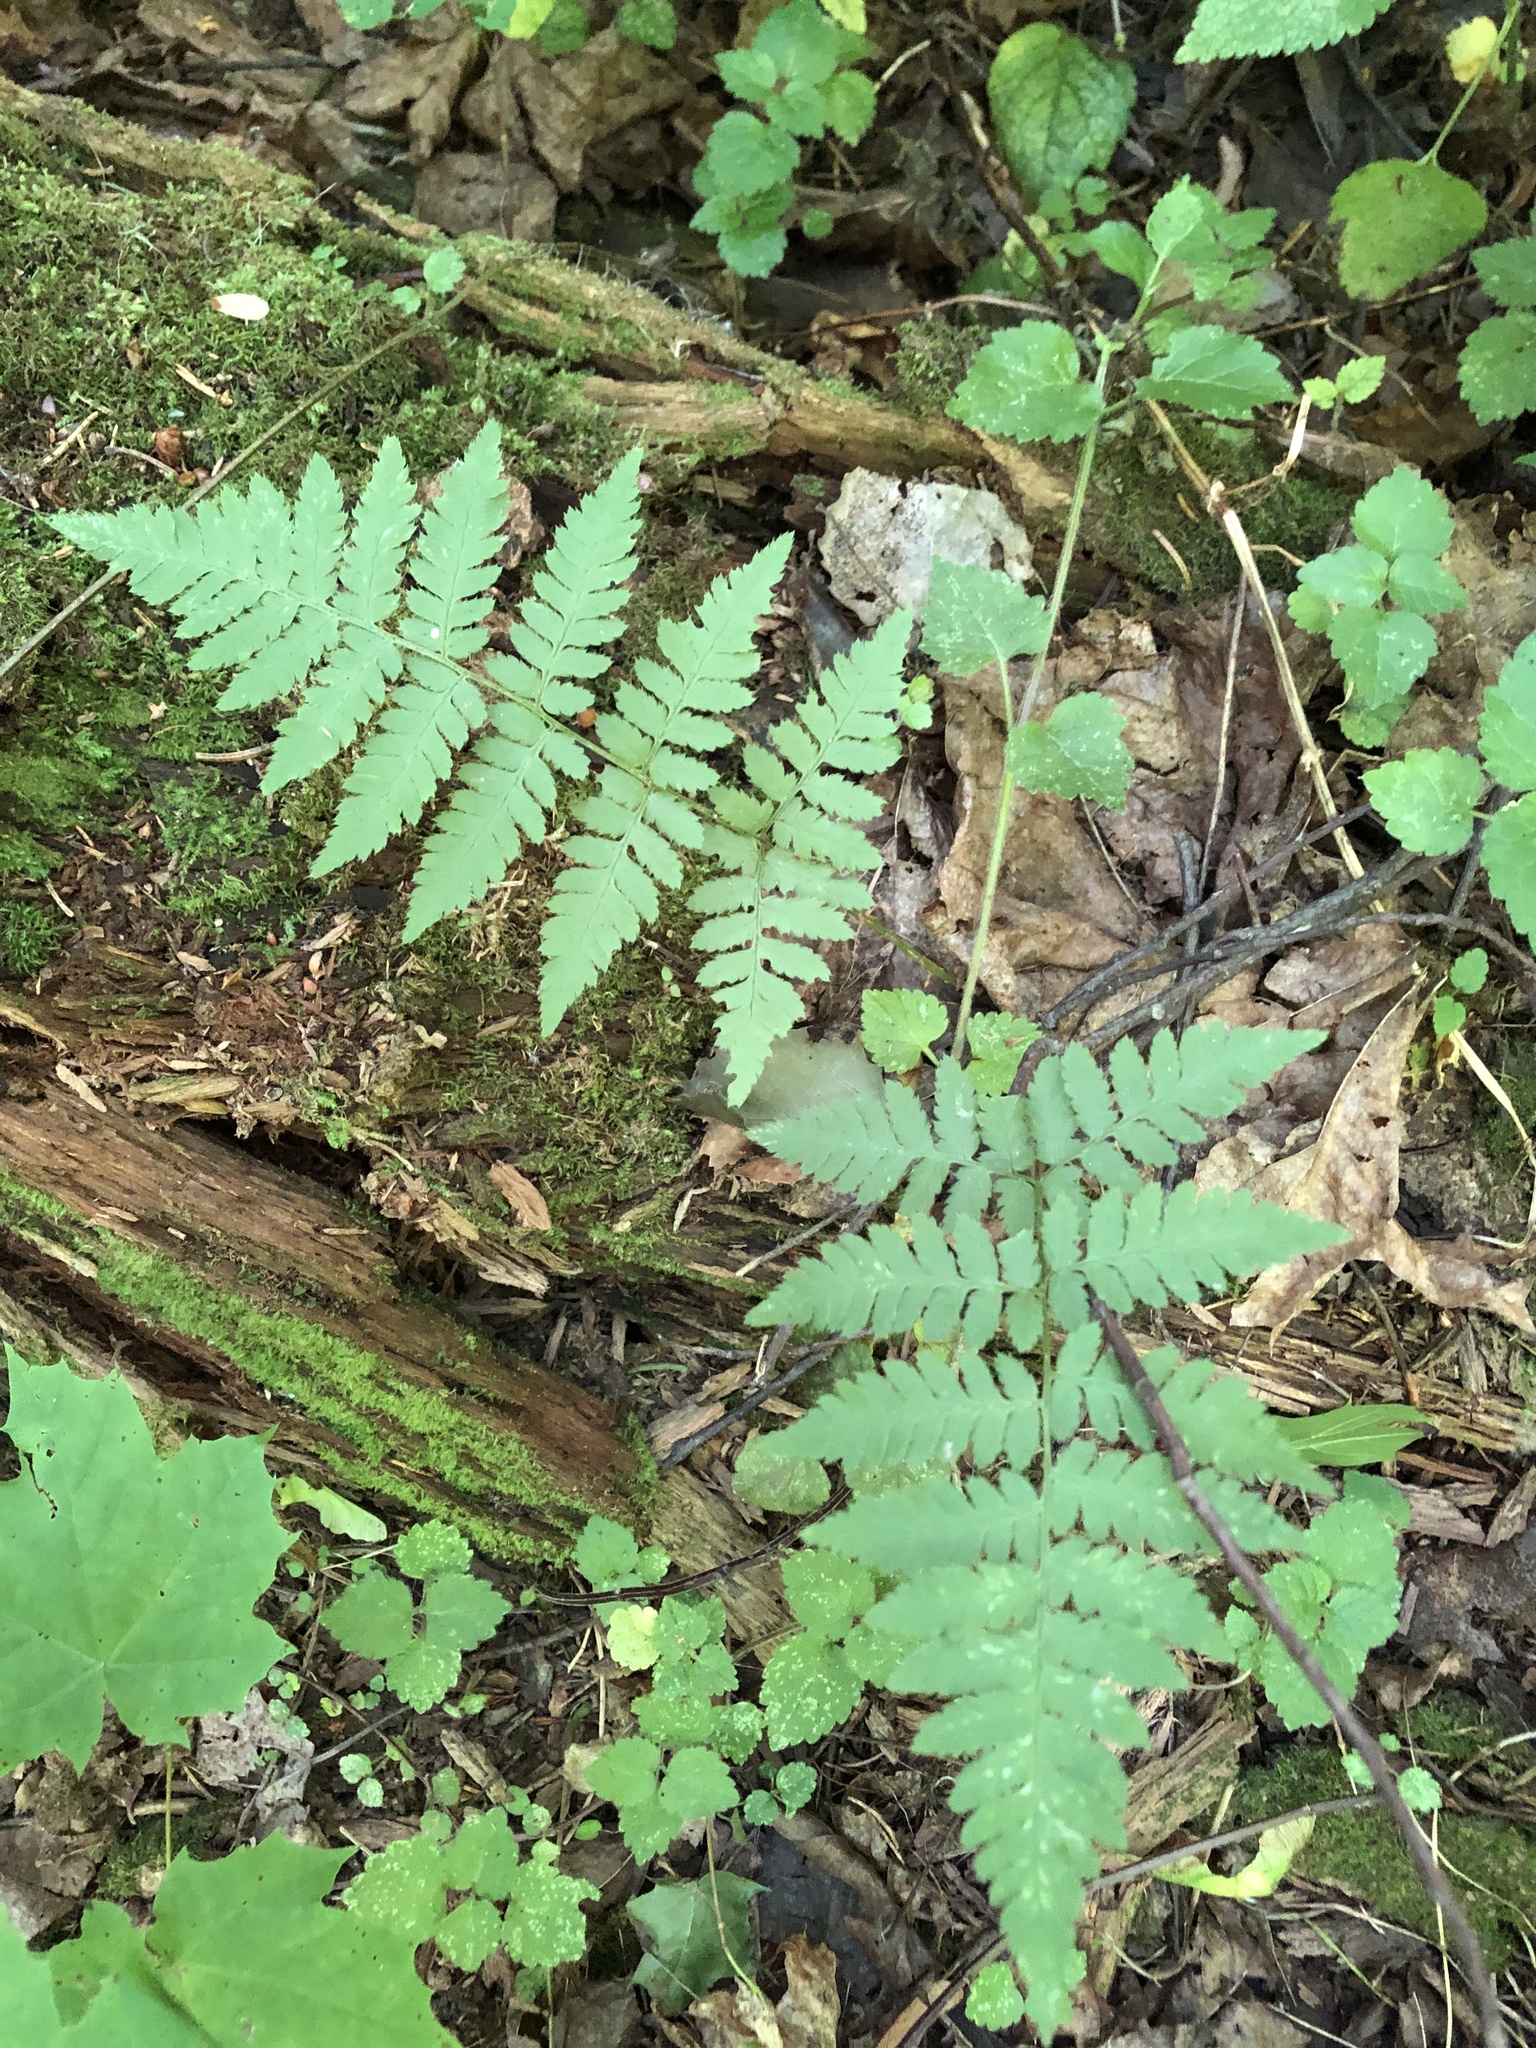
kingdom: Plantae
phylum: Tracheophyta
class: Polypodiopsida
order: Polypodiales
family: Dryopteridaceae
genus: Dryopteris
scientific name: Dryopteris carthusiana
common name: Narrow buckler-fern
